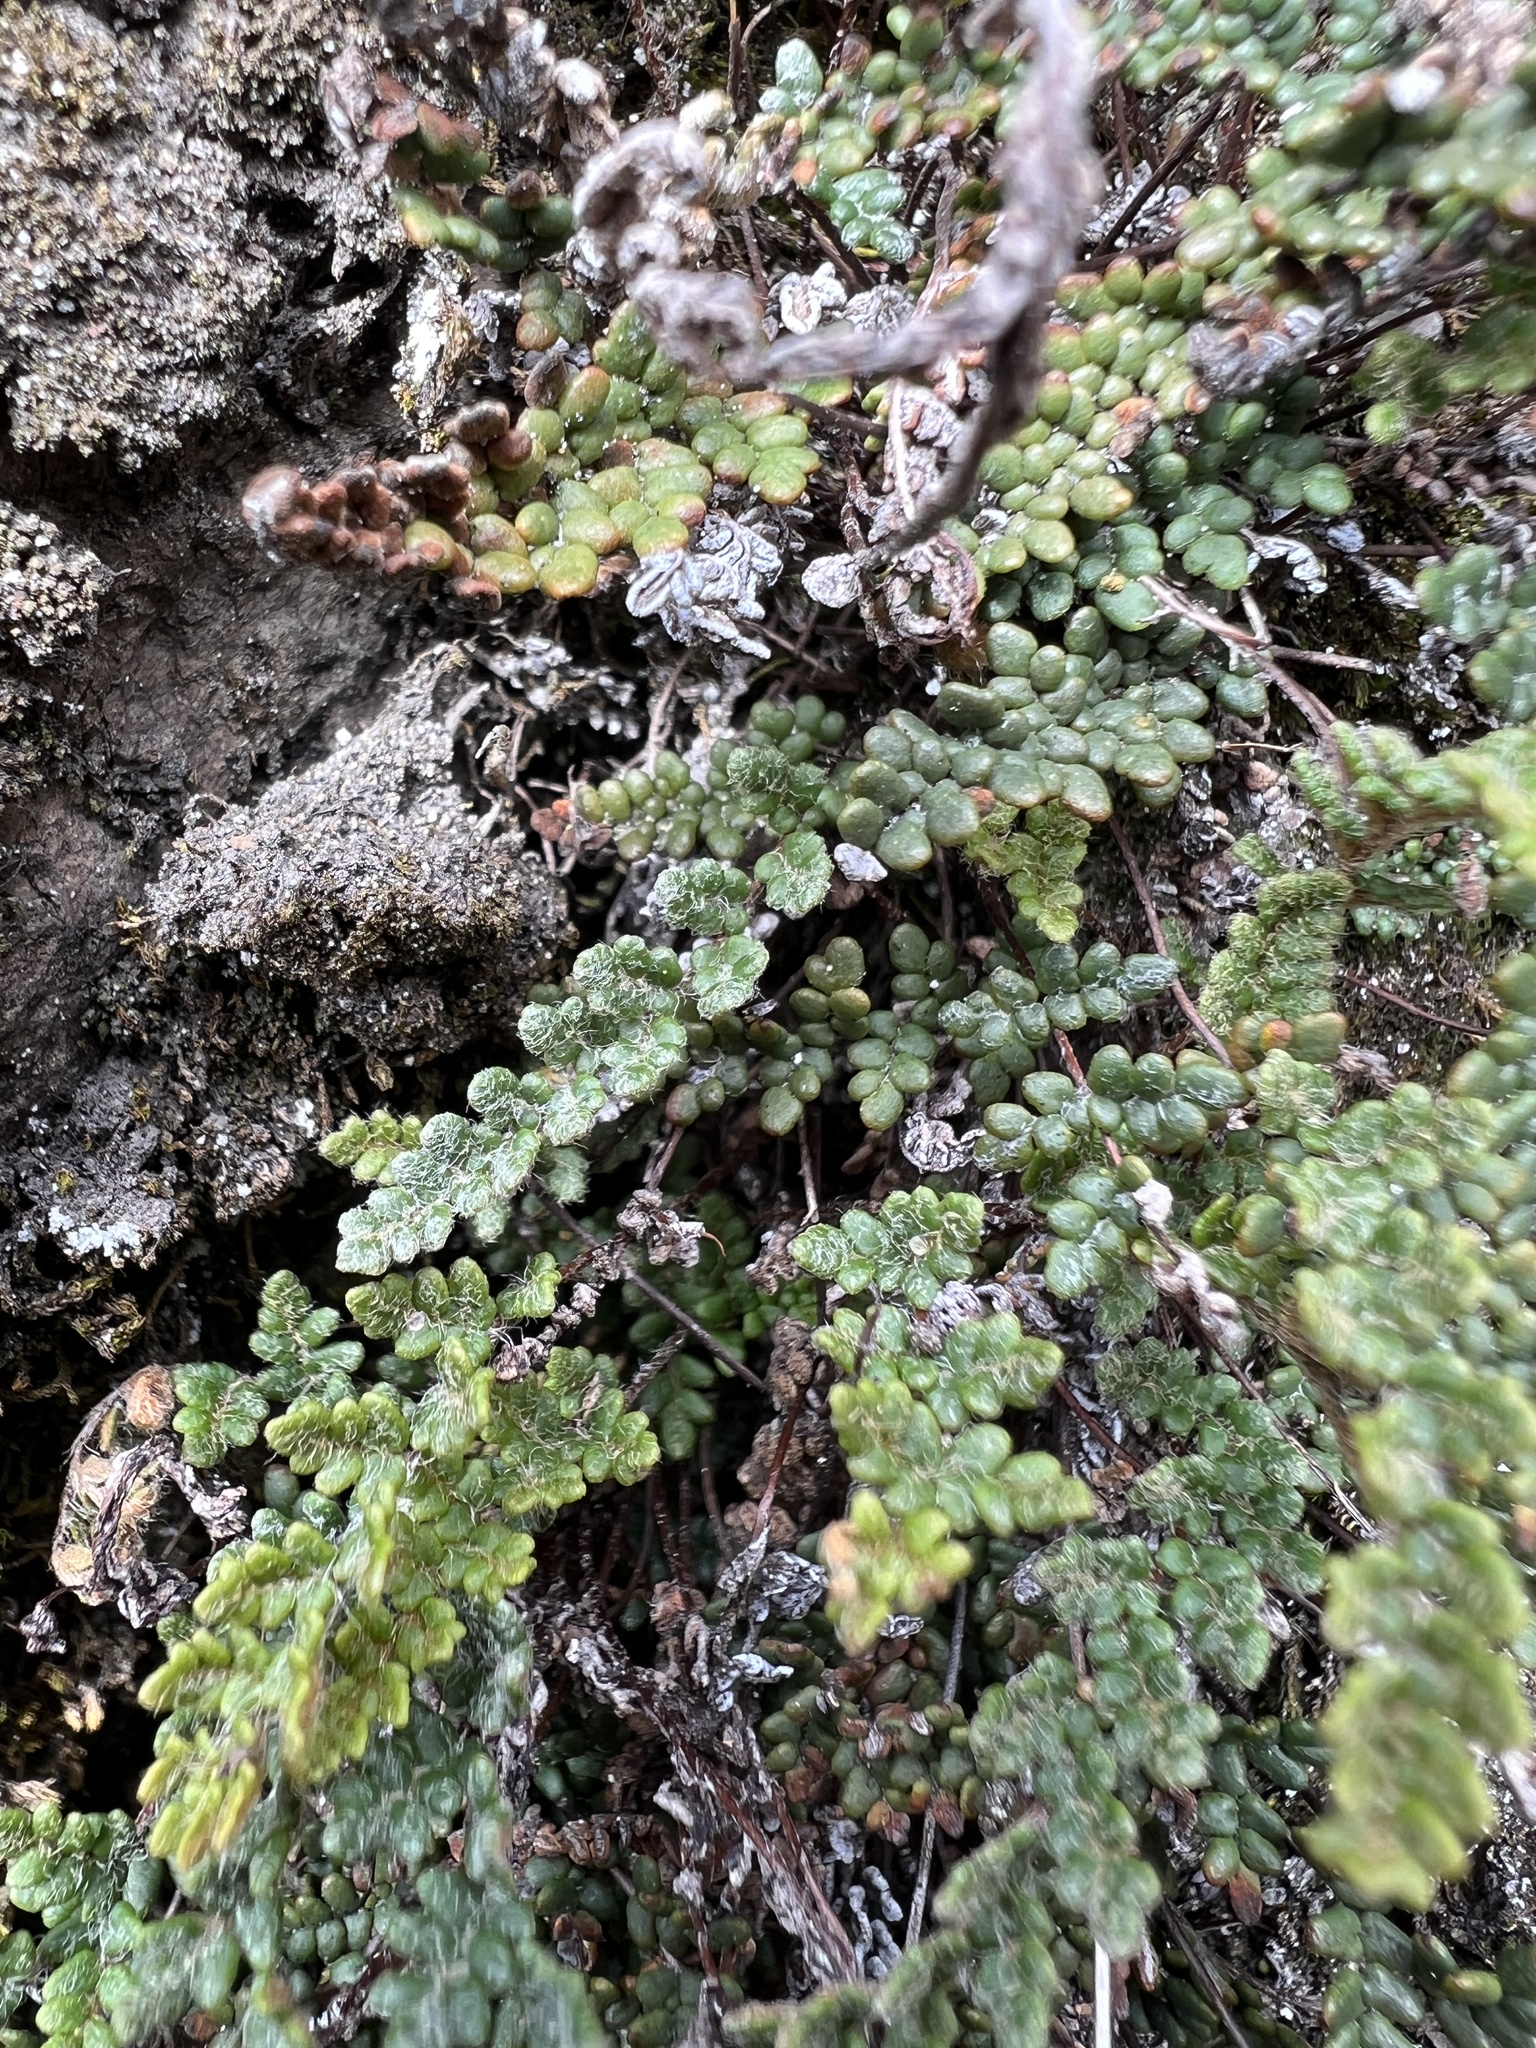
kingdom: Plantae
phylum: Tracheophyta
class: Polypodiopsida
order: Polypodiales
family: Pteridaceae
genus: Myriopteris
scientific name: Myriopteris gracillima
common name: Lace fern
